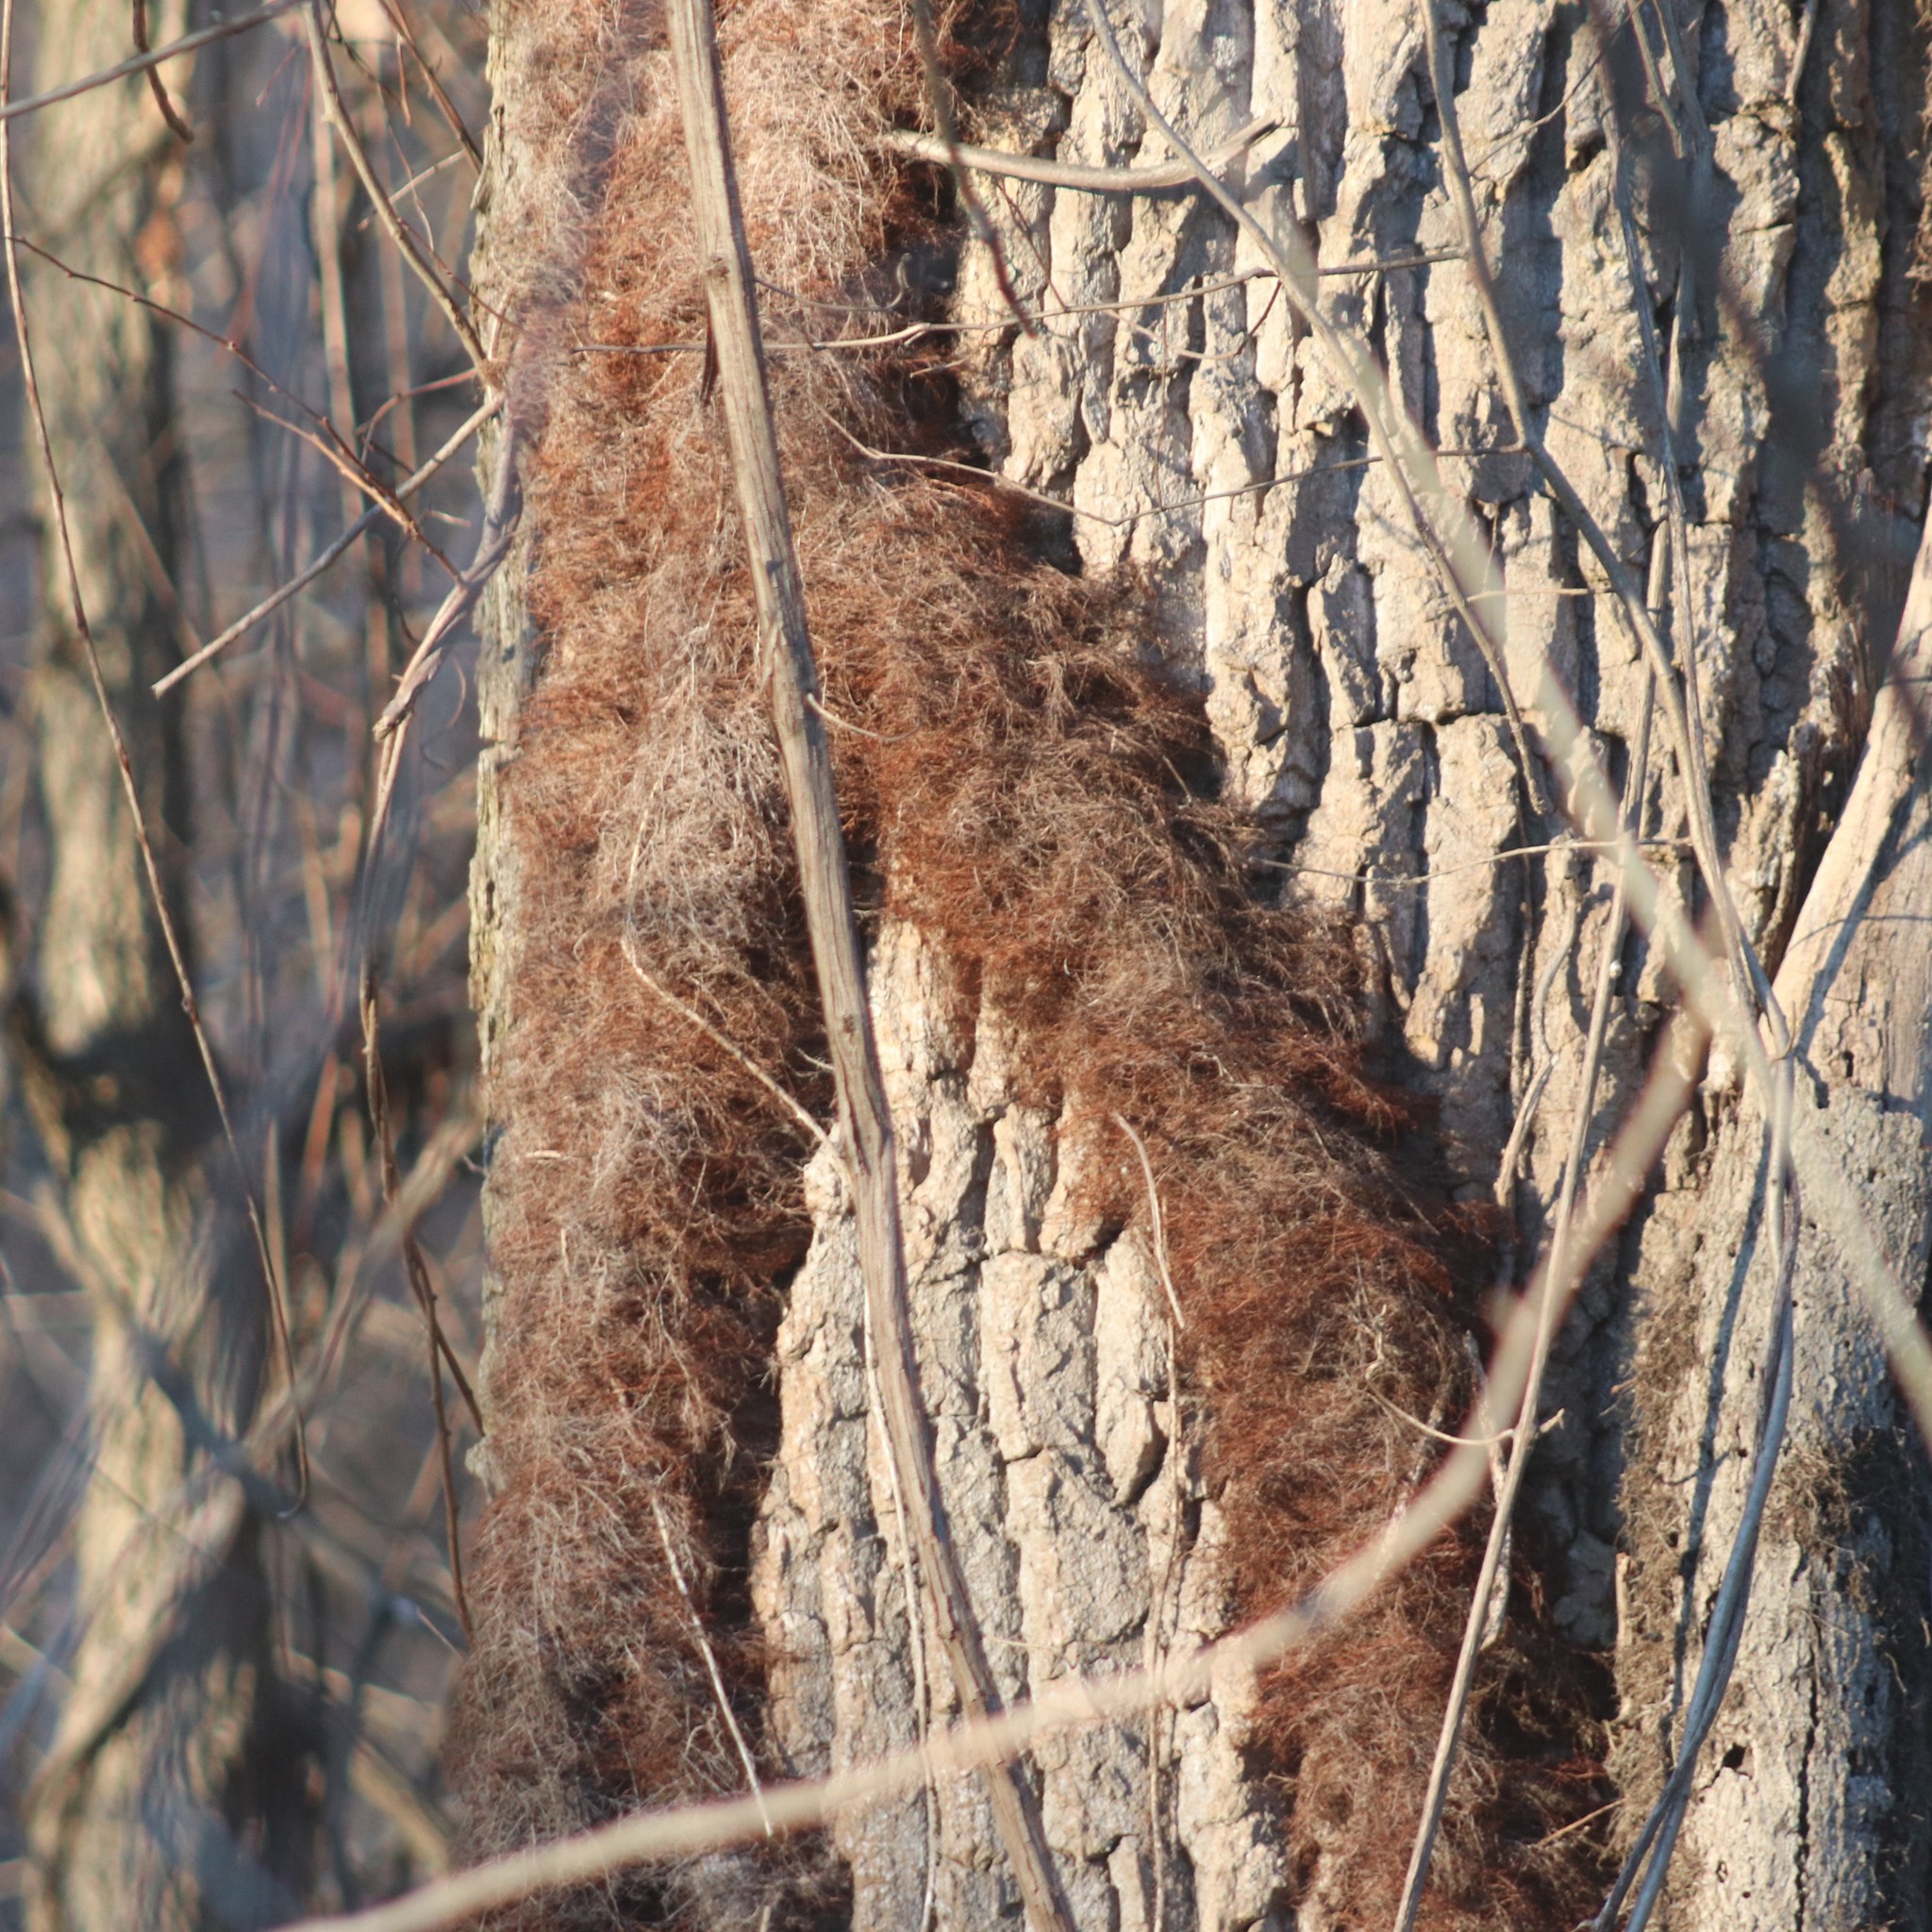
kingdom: Plantae
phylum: Tracheophyta
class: Magnoliopsida
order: Sapindales
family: Anacardiaceae
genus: Toxicodendron
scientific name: Toxicodendron radicans
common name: Poison ivy
